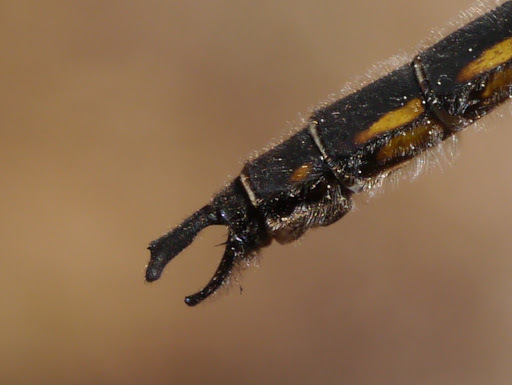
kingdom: Animalia
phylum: Arthropoda
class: Insecta
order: Odonata
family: Corduliidae
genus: Epitheca
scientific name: Epitheca spinosa
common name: Robust baskettail
